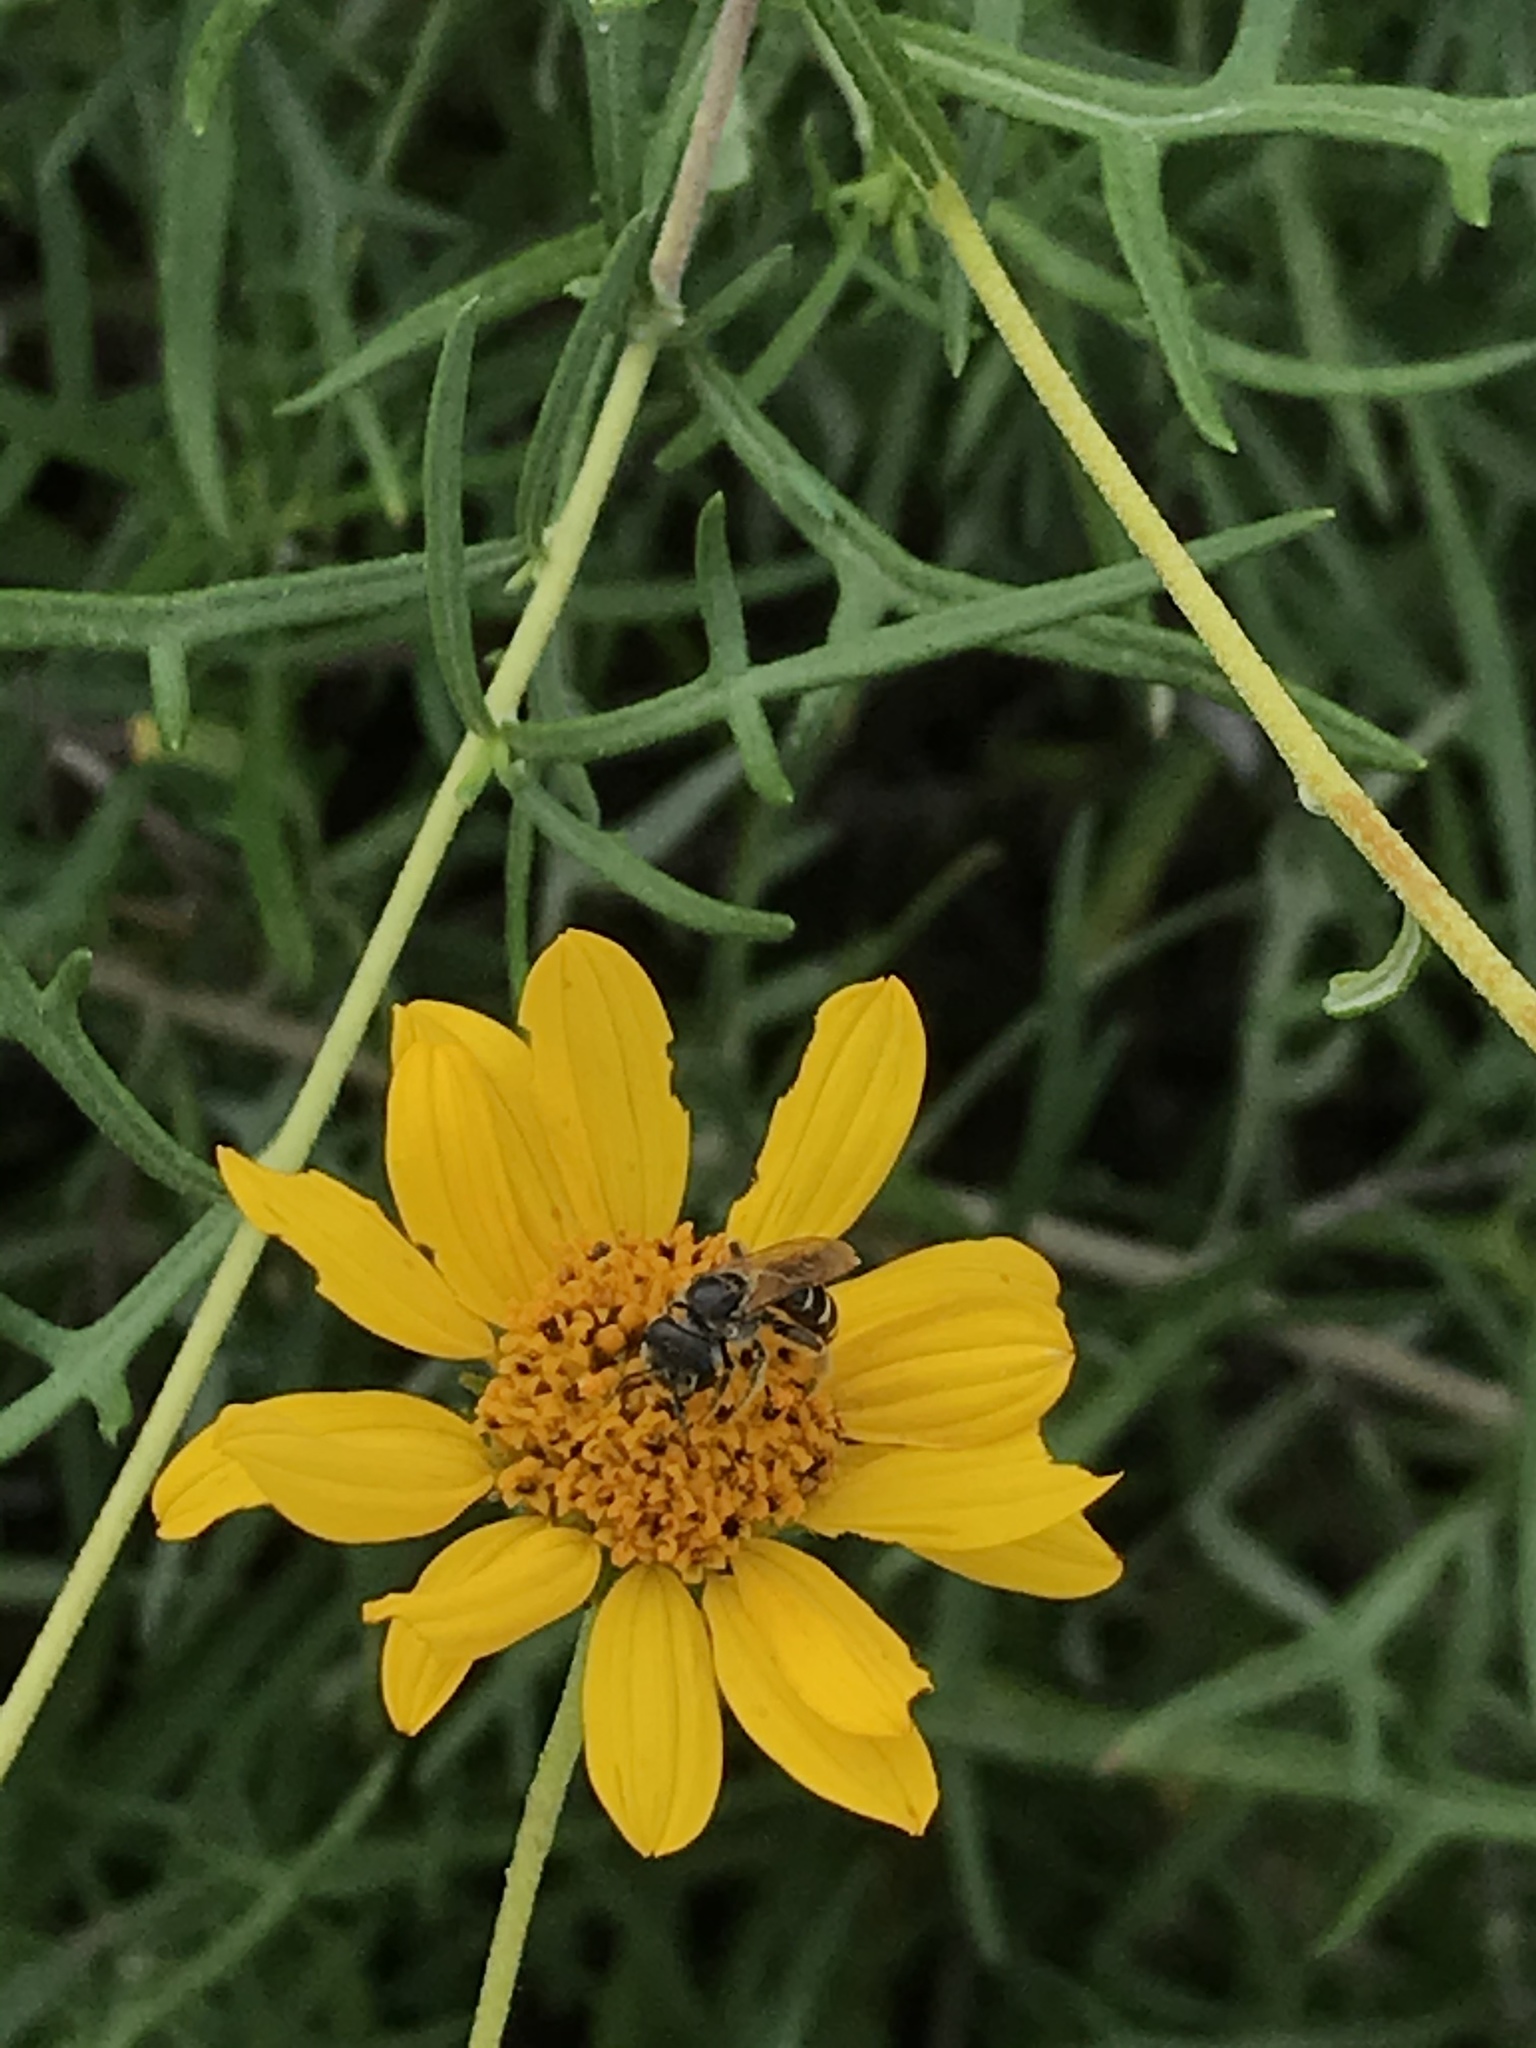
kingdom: Animalia
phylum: Arthropoda
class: Insecta
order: Hymenoptera
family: Halictidae
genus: Halictus
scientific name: Halictus ligatus
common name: Ligated furrow bee
